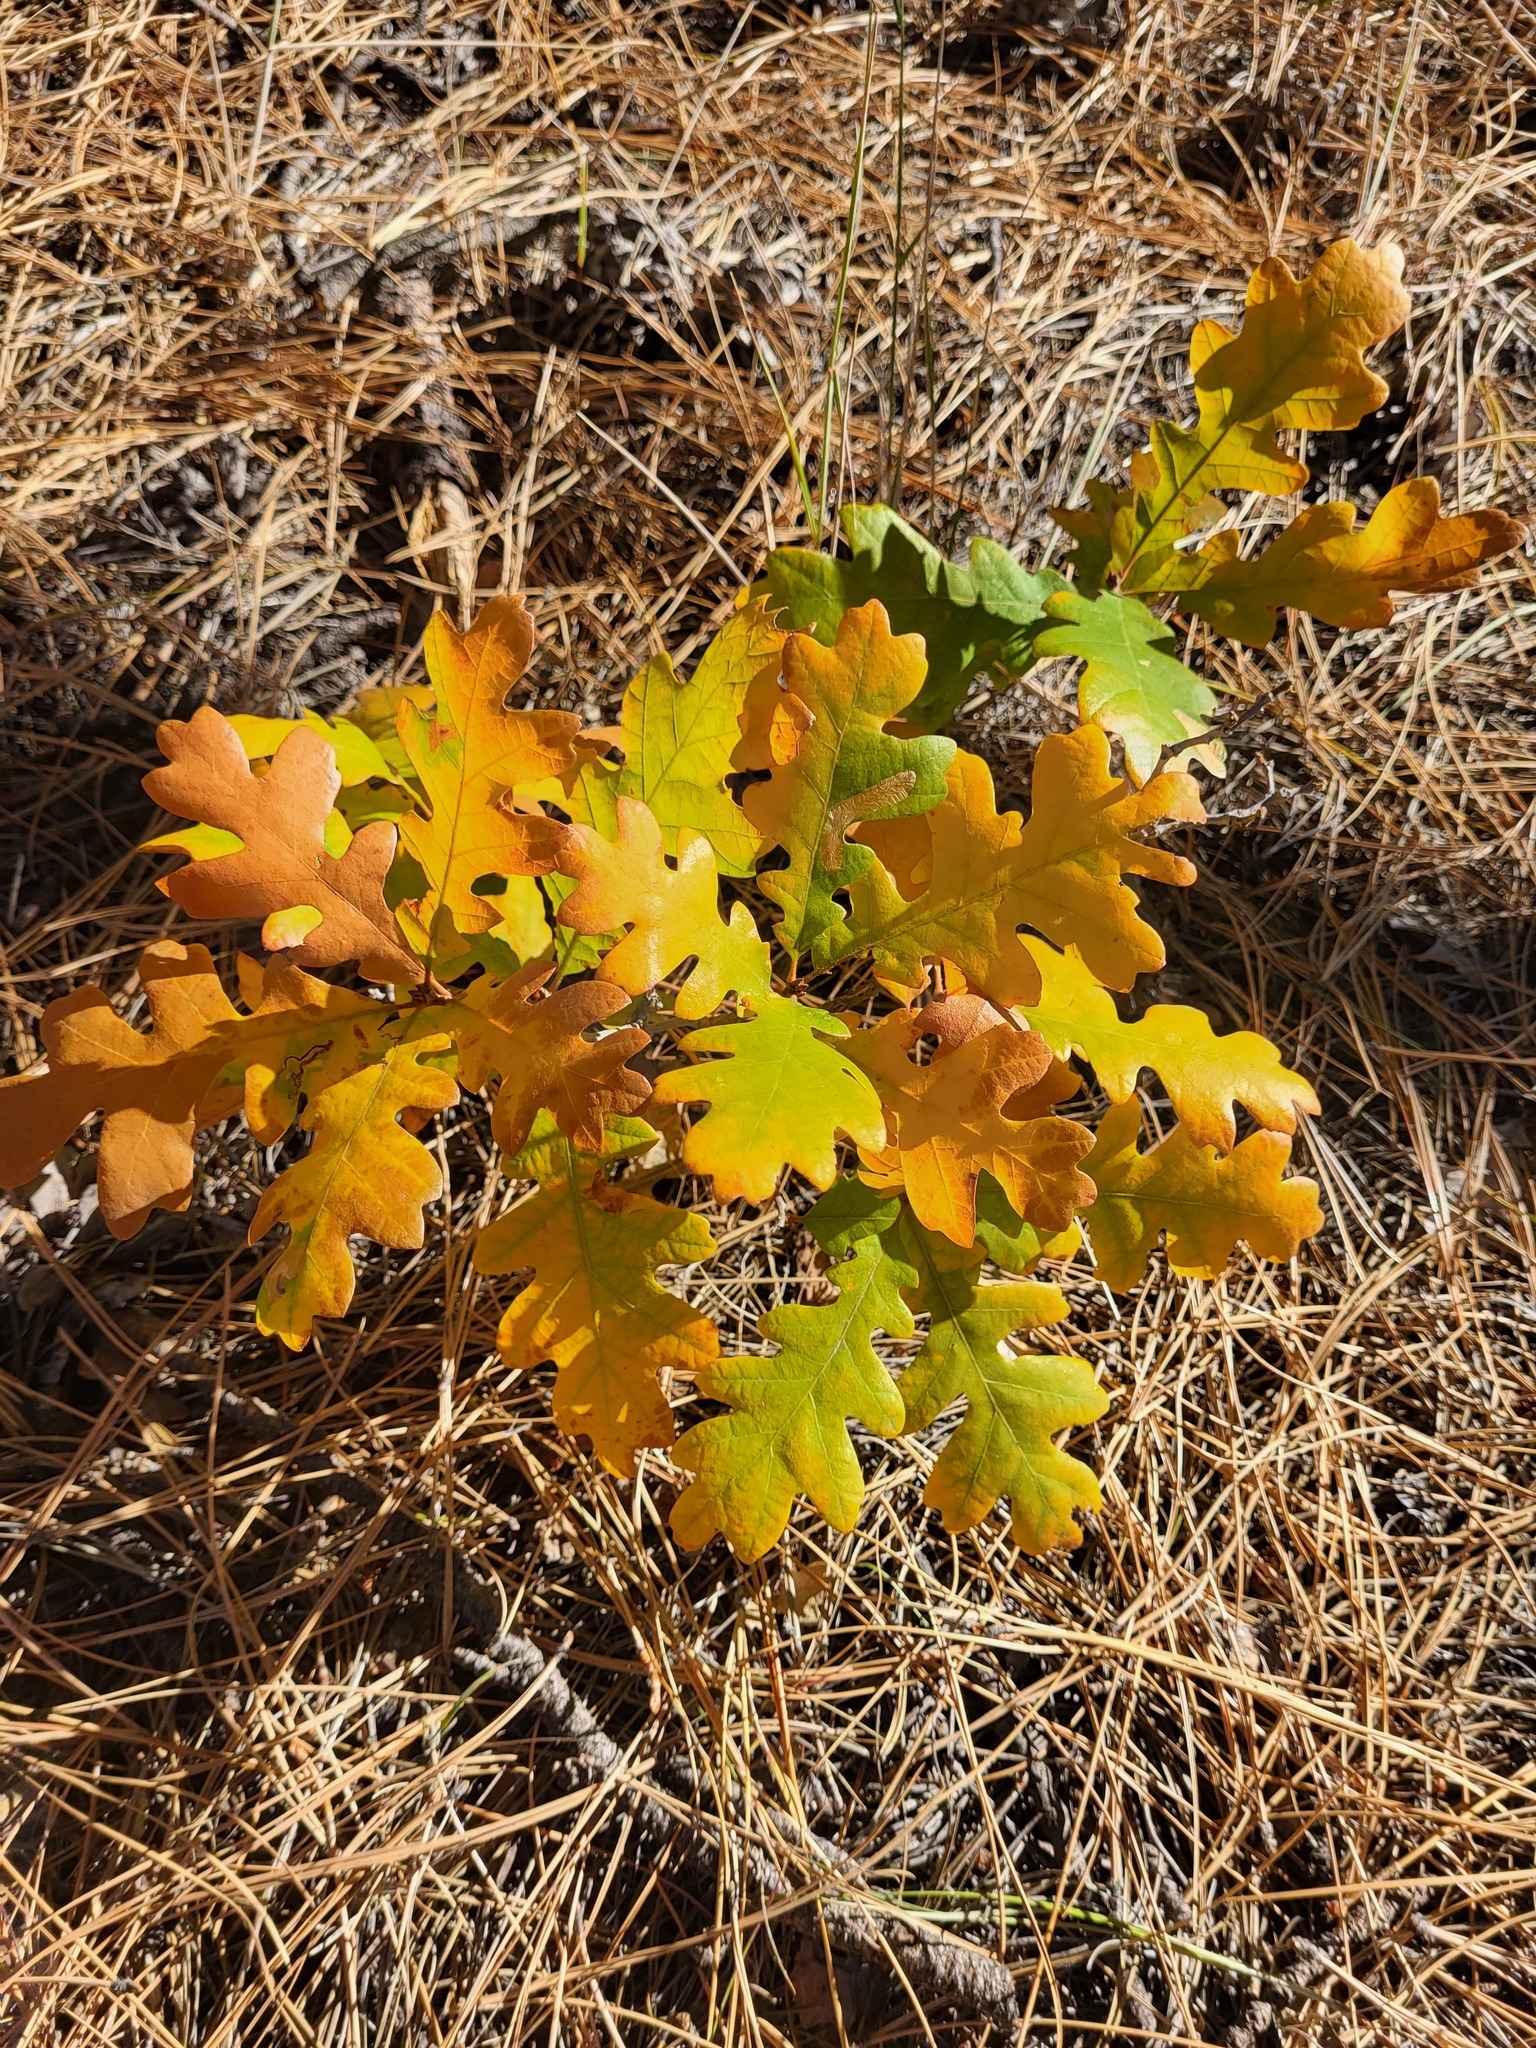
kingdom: Plantae
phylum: Tracheophyta
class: Magnoliopsida
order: Fagales
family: Fagaceae
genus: Quercus
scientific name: Quercus gambelii
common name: Gambel oak
